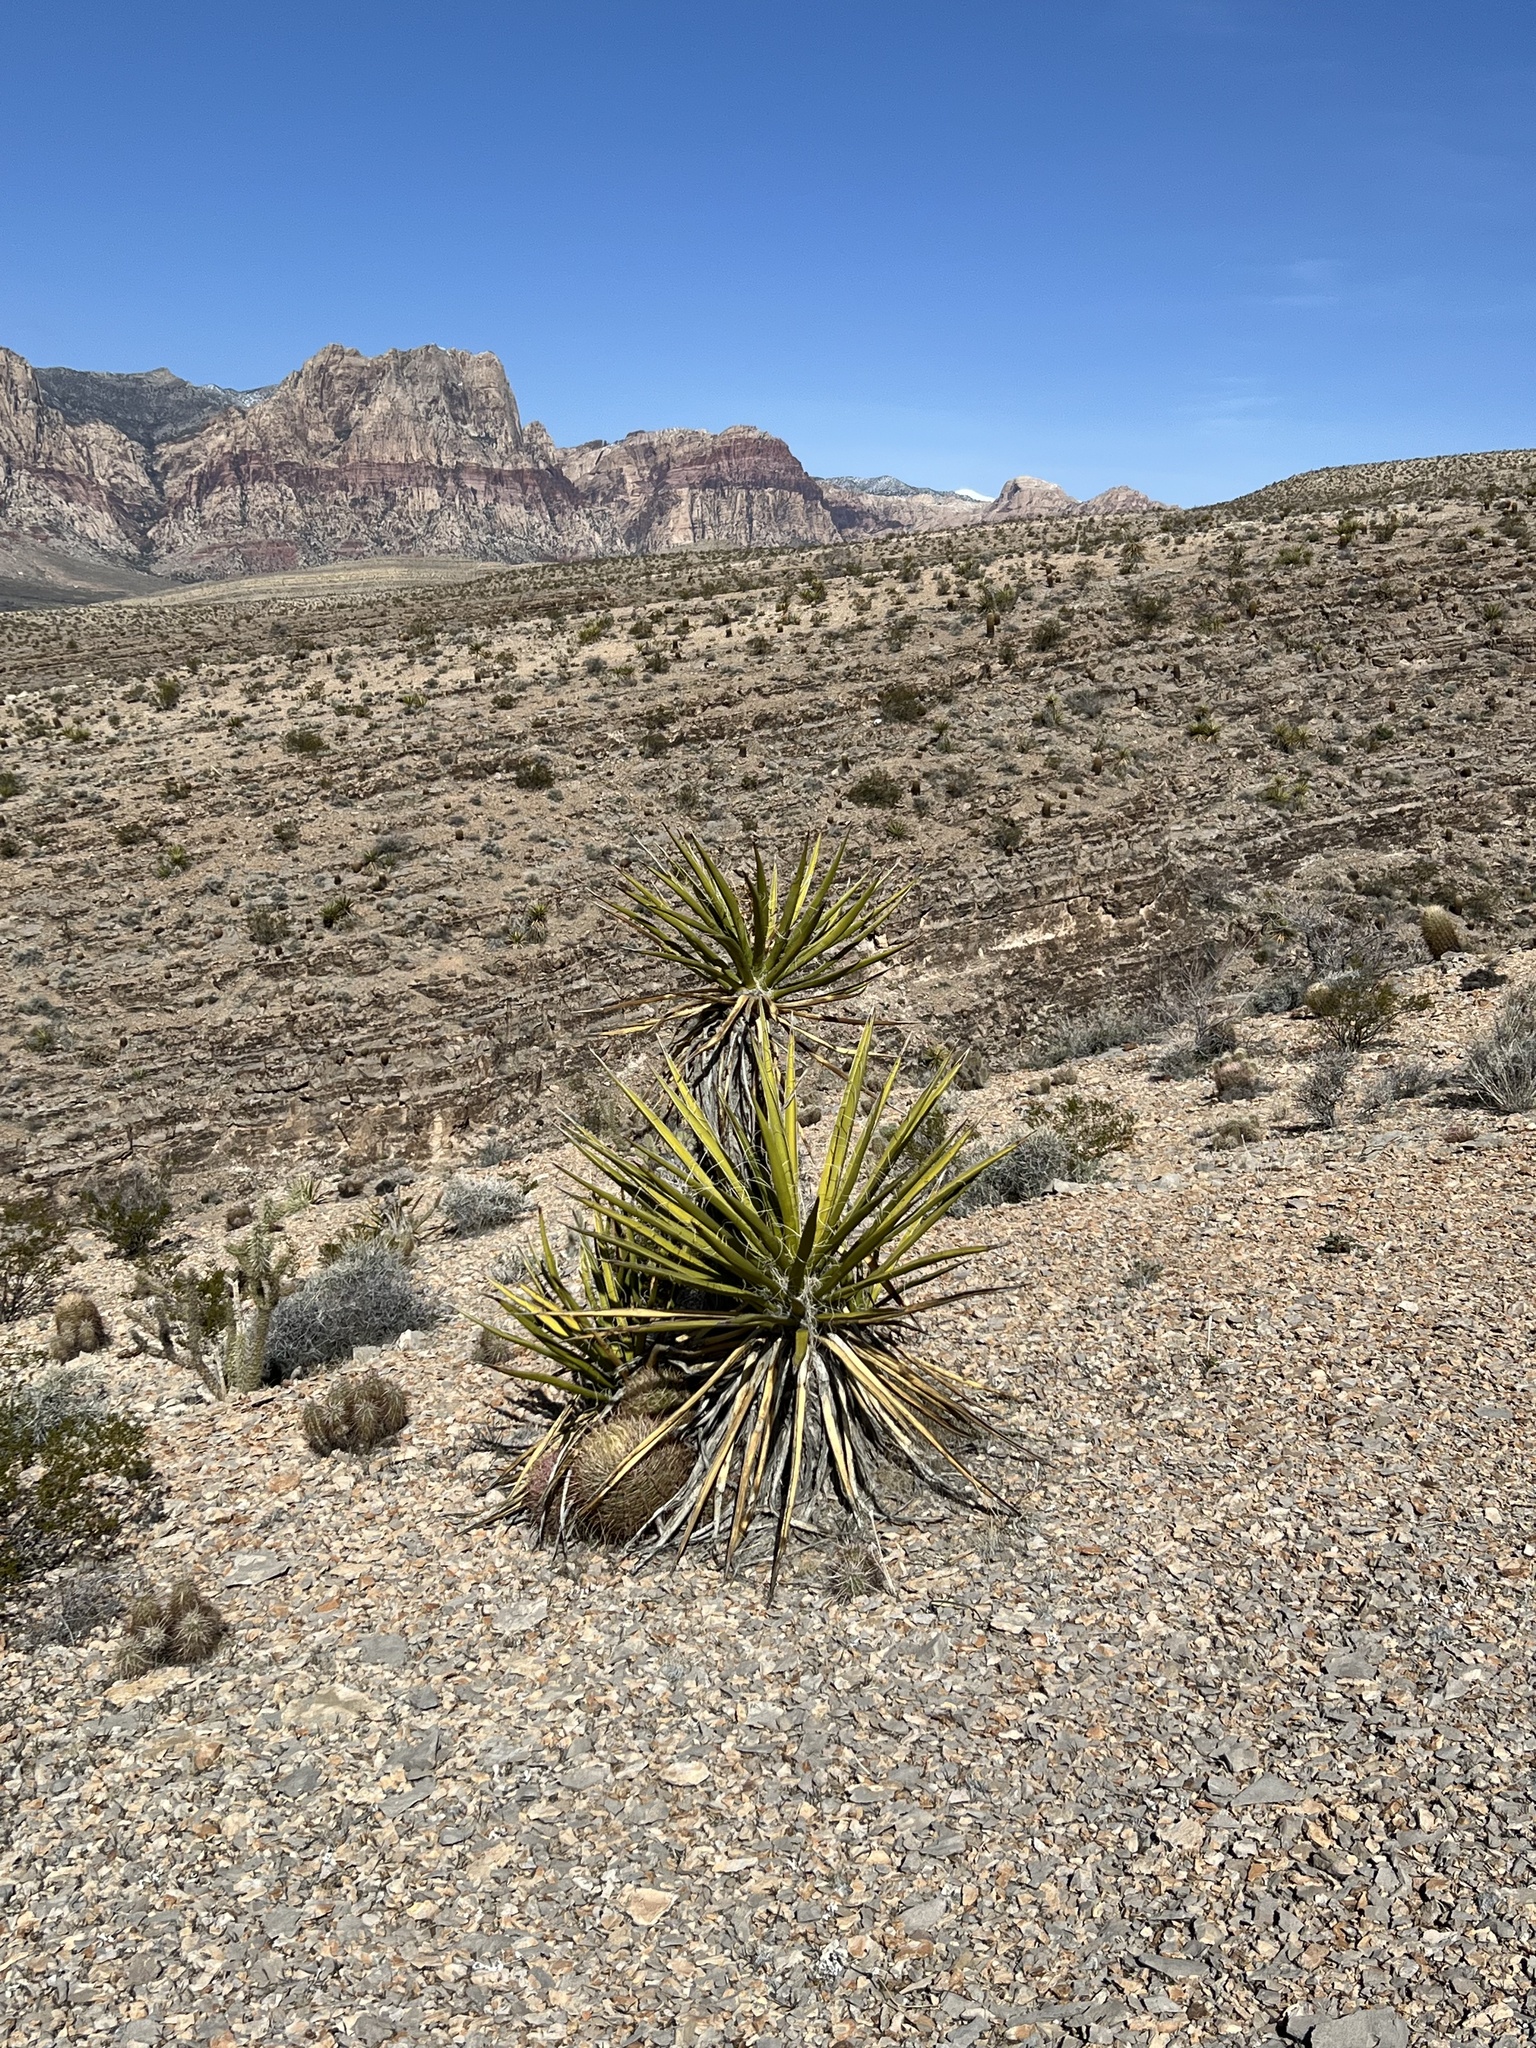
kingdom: Plantae
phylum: Tracheophyta
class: Liliopsida
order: Asparagales
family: Asparagaceae
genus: Yucca
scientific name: Yucca schidigera
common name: Mojave yucca
